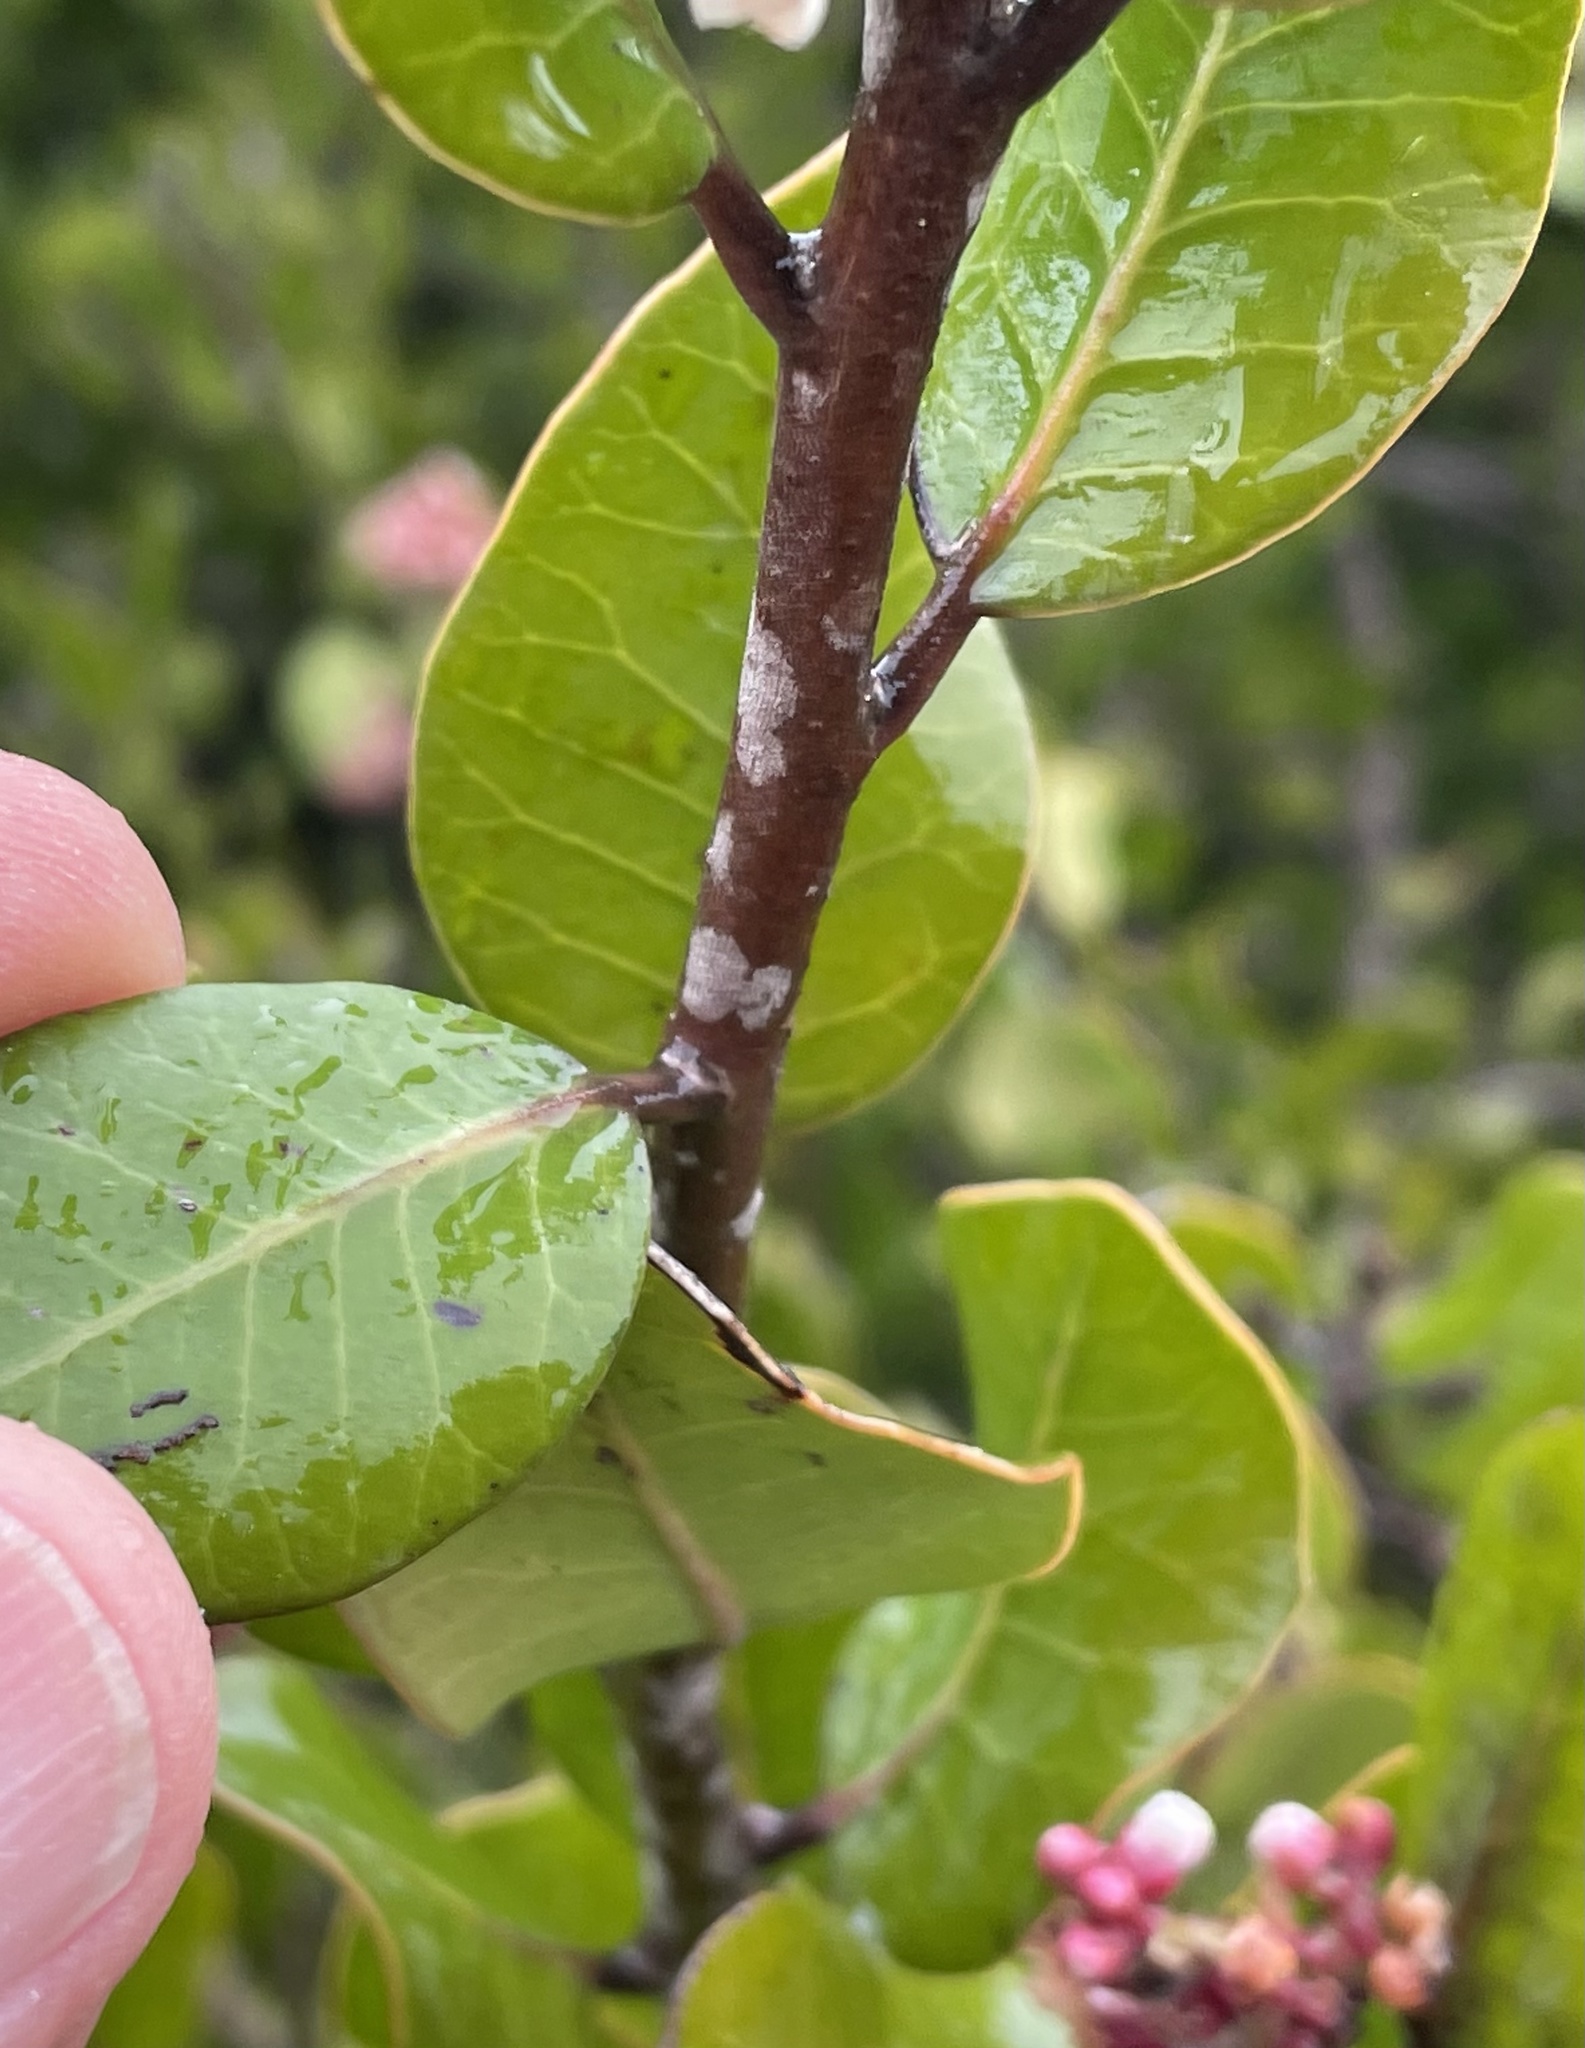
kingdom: Plantae
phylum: Tracheophyta
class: Magnoliopsida
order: Sapindales
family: Anacardiaceae
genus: Rhus
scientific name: Rhus integrifolia
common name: Lemonade sumac
